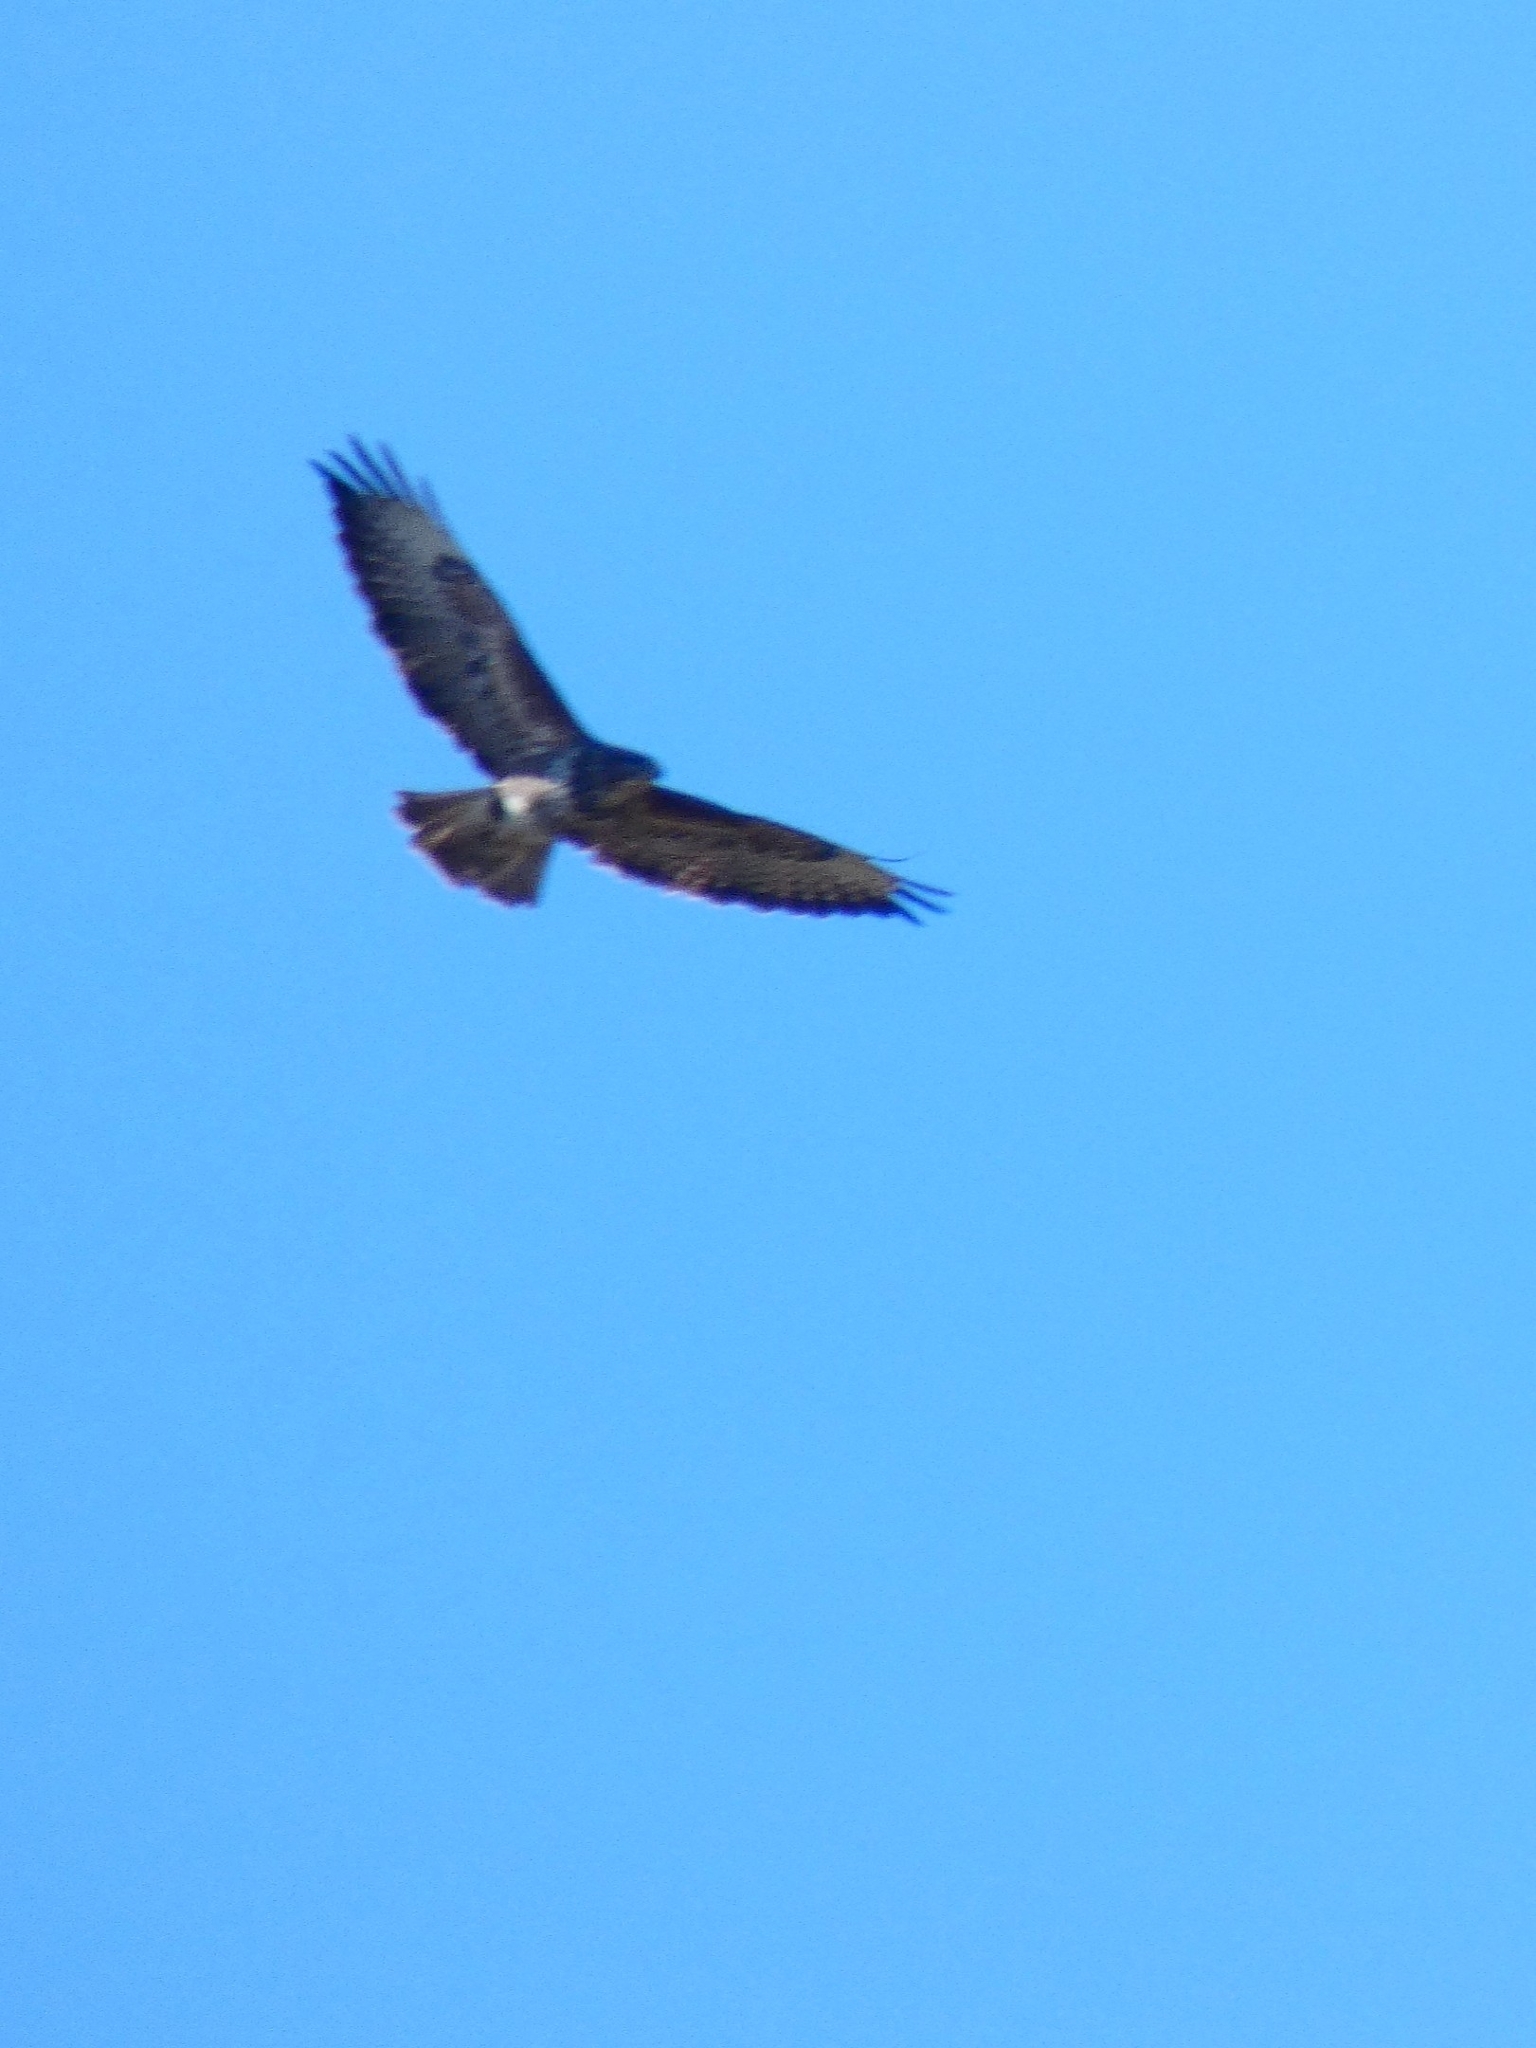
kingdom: Animalia
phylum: Chordata
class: Aves
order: Accipitriformes
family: Accipitridae
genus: Buteo
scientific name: Buteo buteo
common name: Common buzzard
